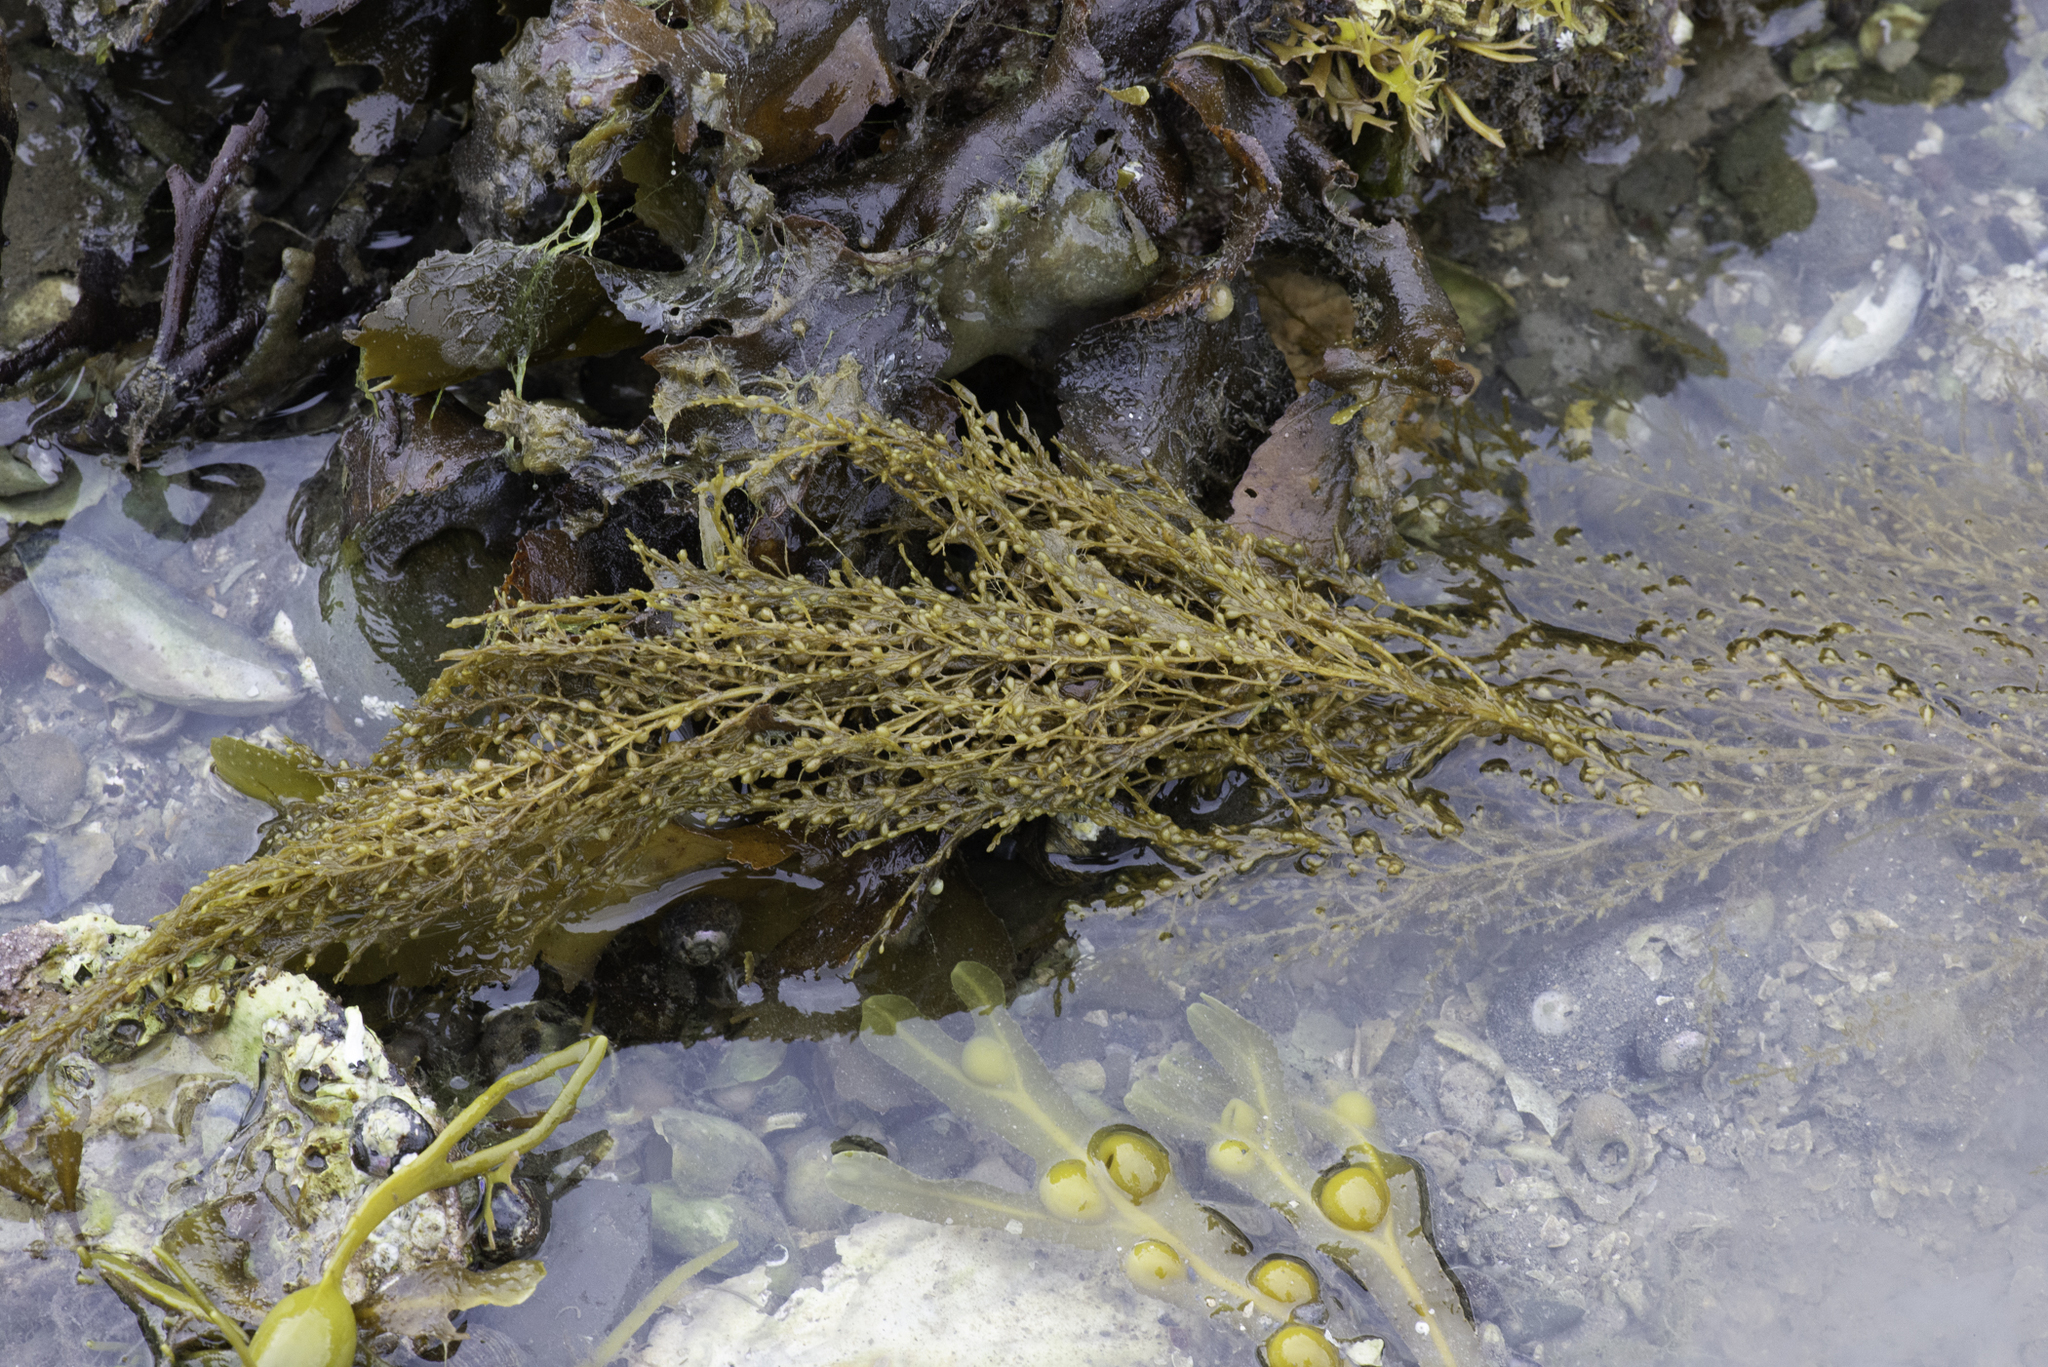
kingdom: Chromista
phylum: Ochrophyta
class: Phaeophyceae
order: Fucales
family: Sargassaceae
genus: Sargassum
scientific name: Sargassum muticum
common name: Japweed
